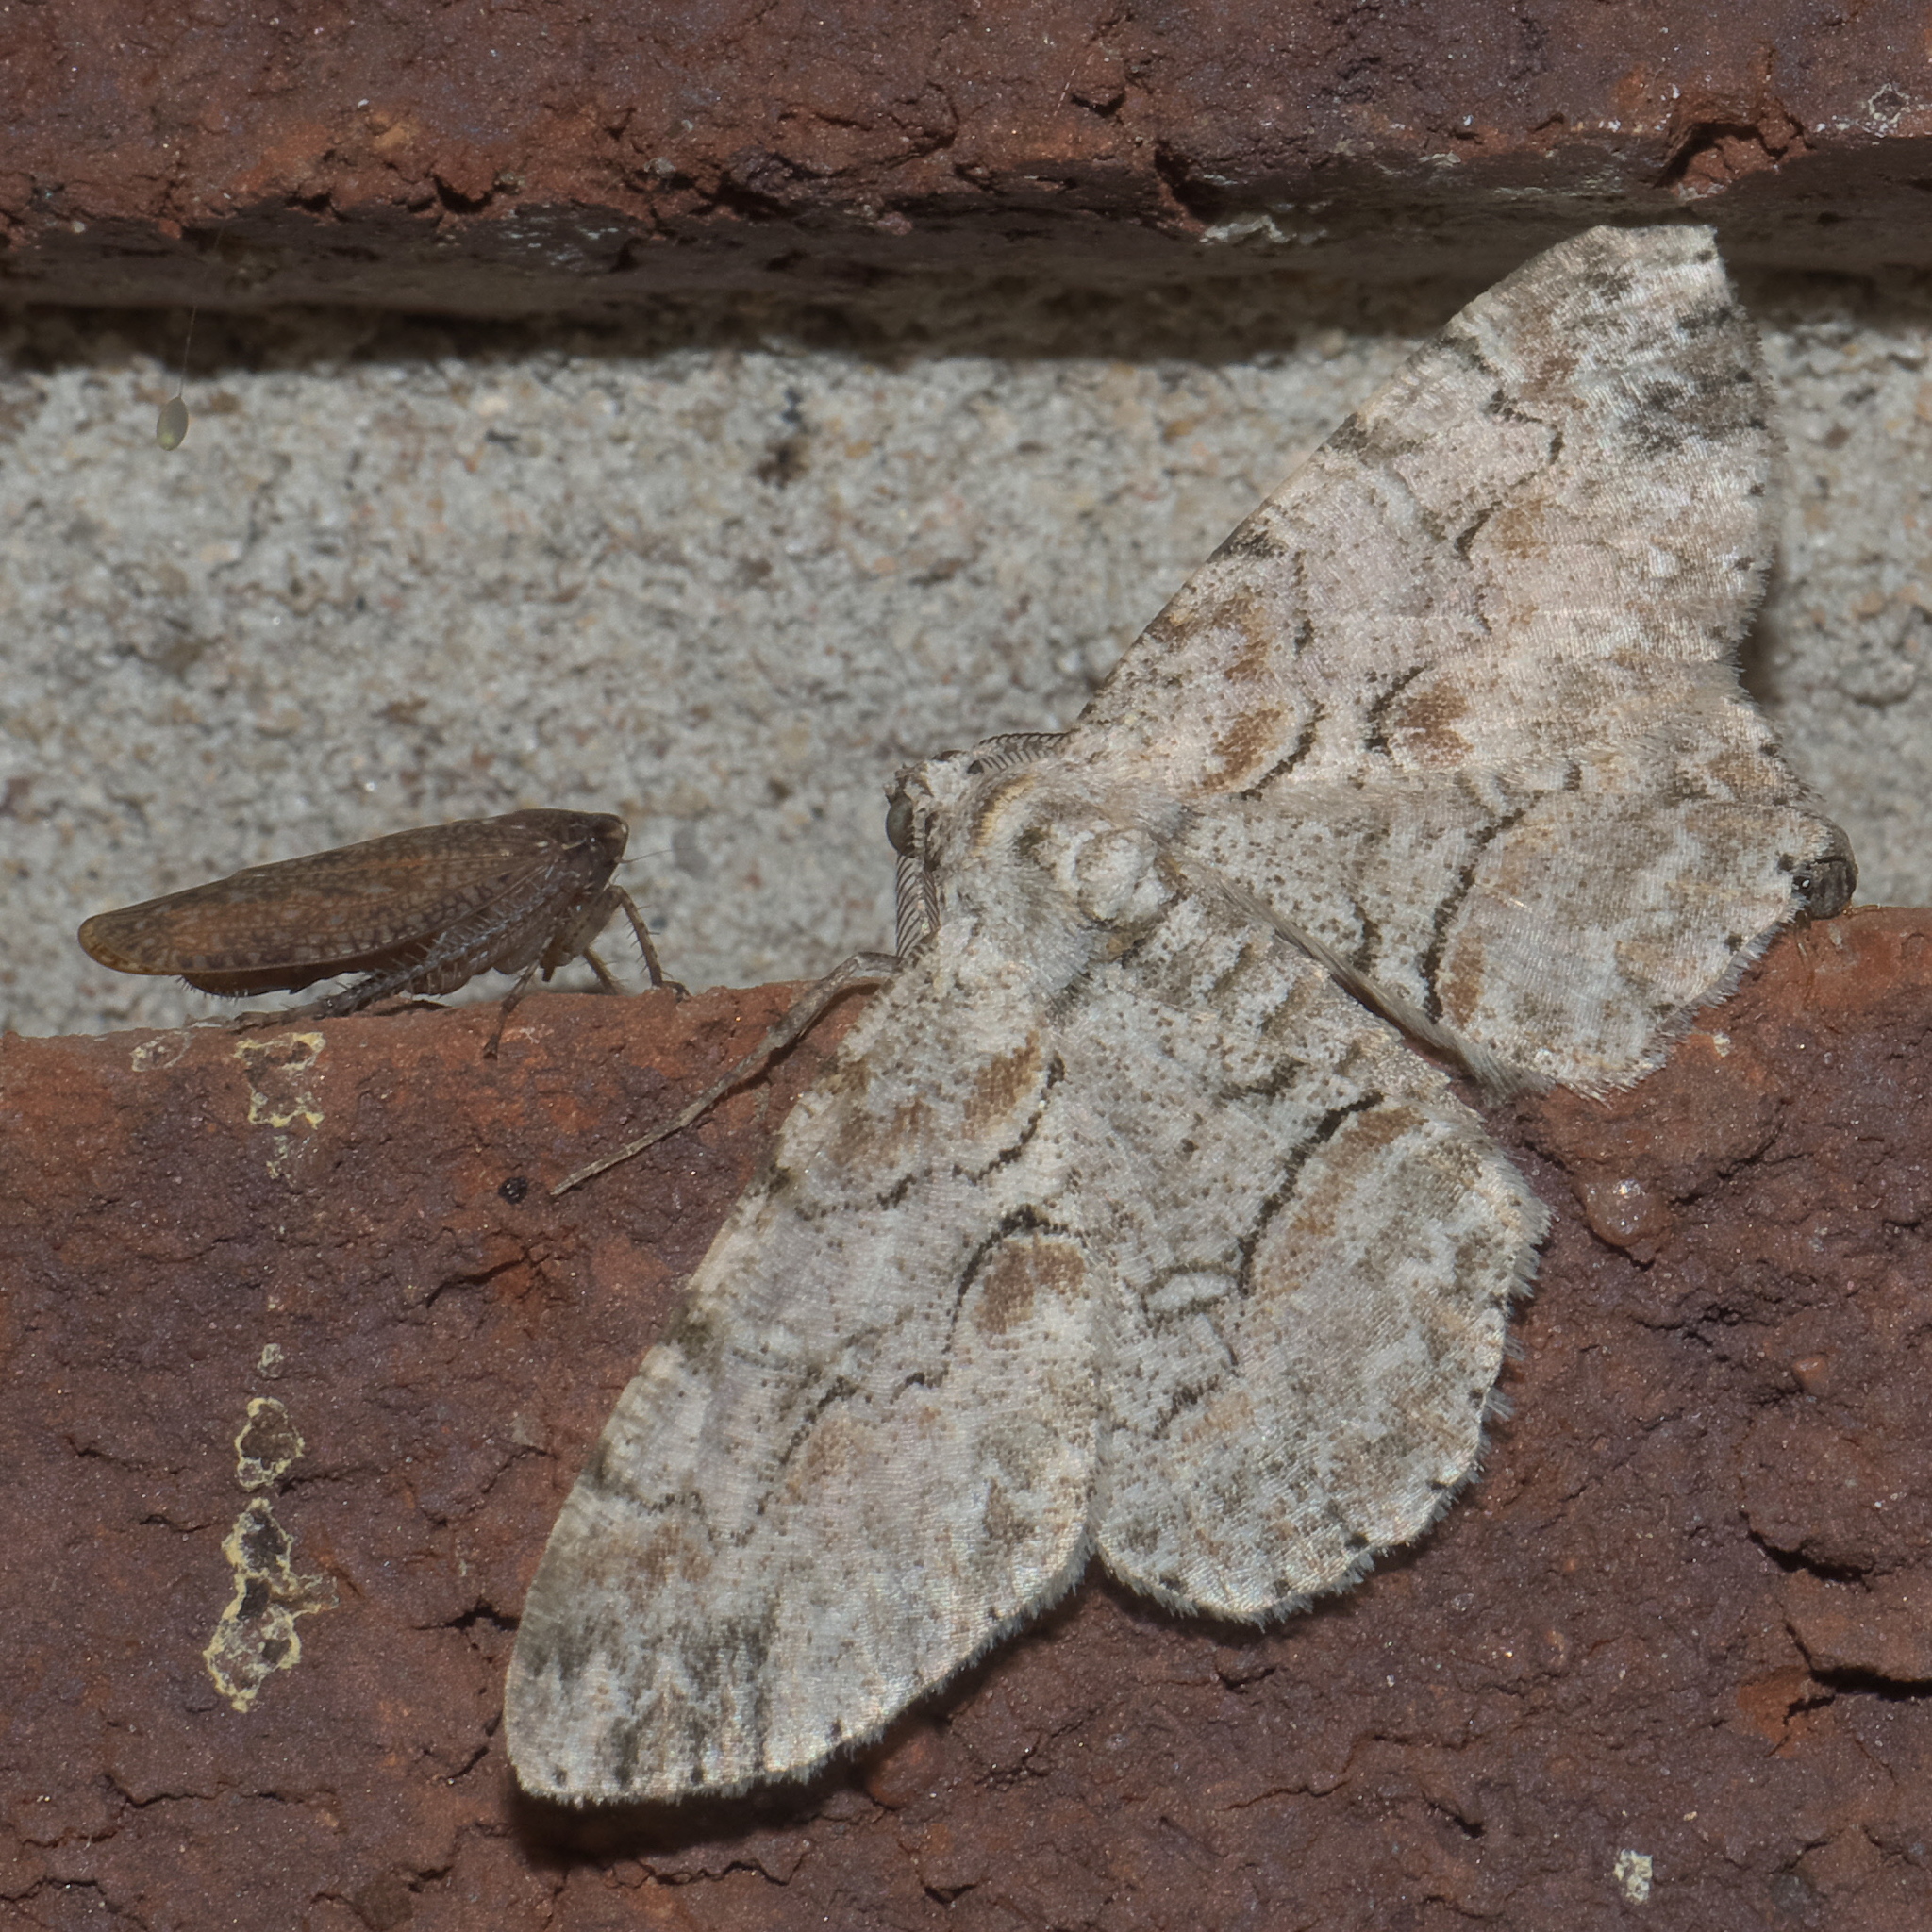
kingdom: Animalia
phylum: Arthropoda
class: Insecta
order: Lepidoptera
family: Geometridae
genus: Iridopsis
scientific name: Iridopsis defectaria
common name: Brown-shaded gray
